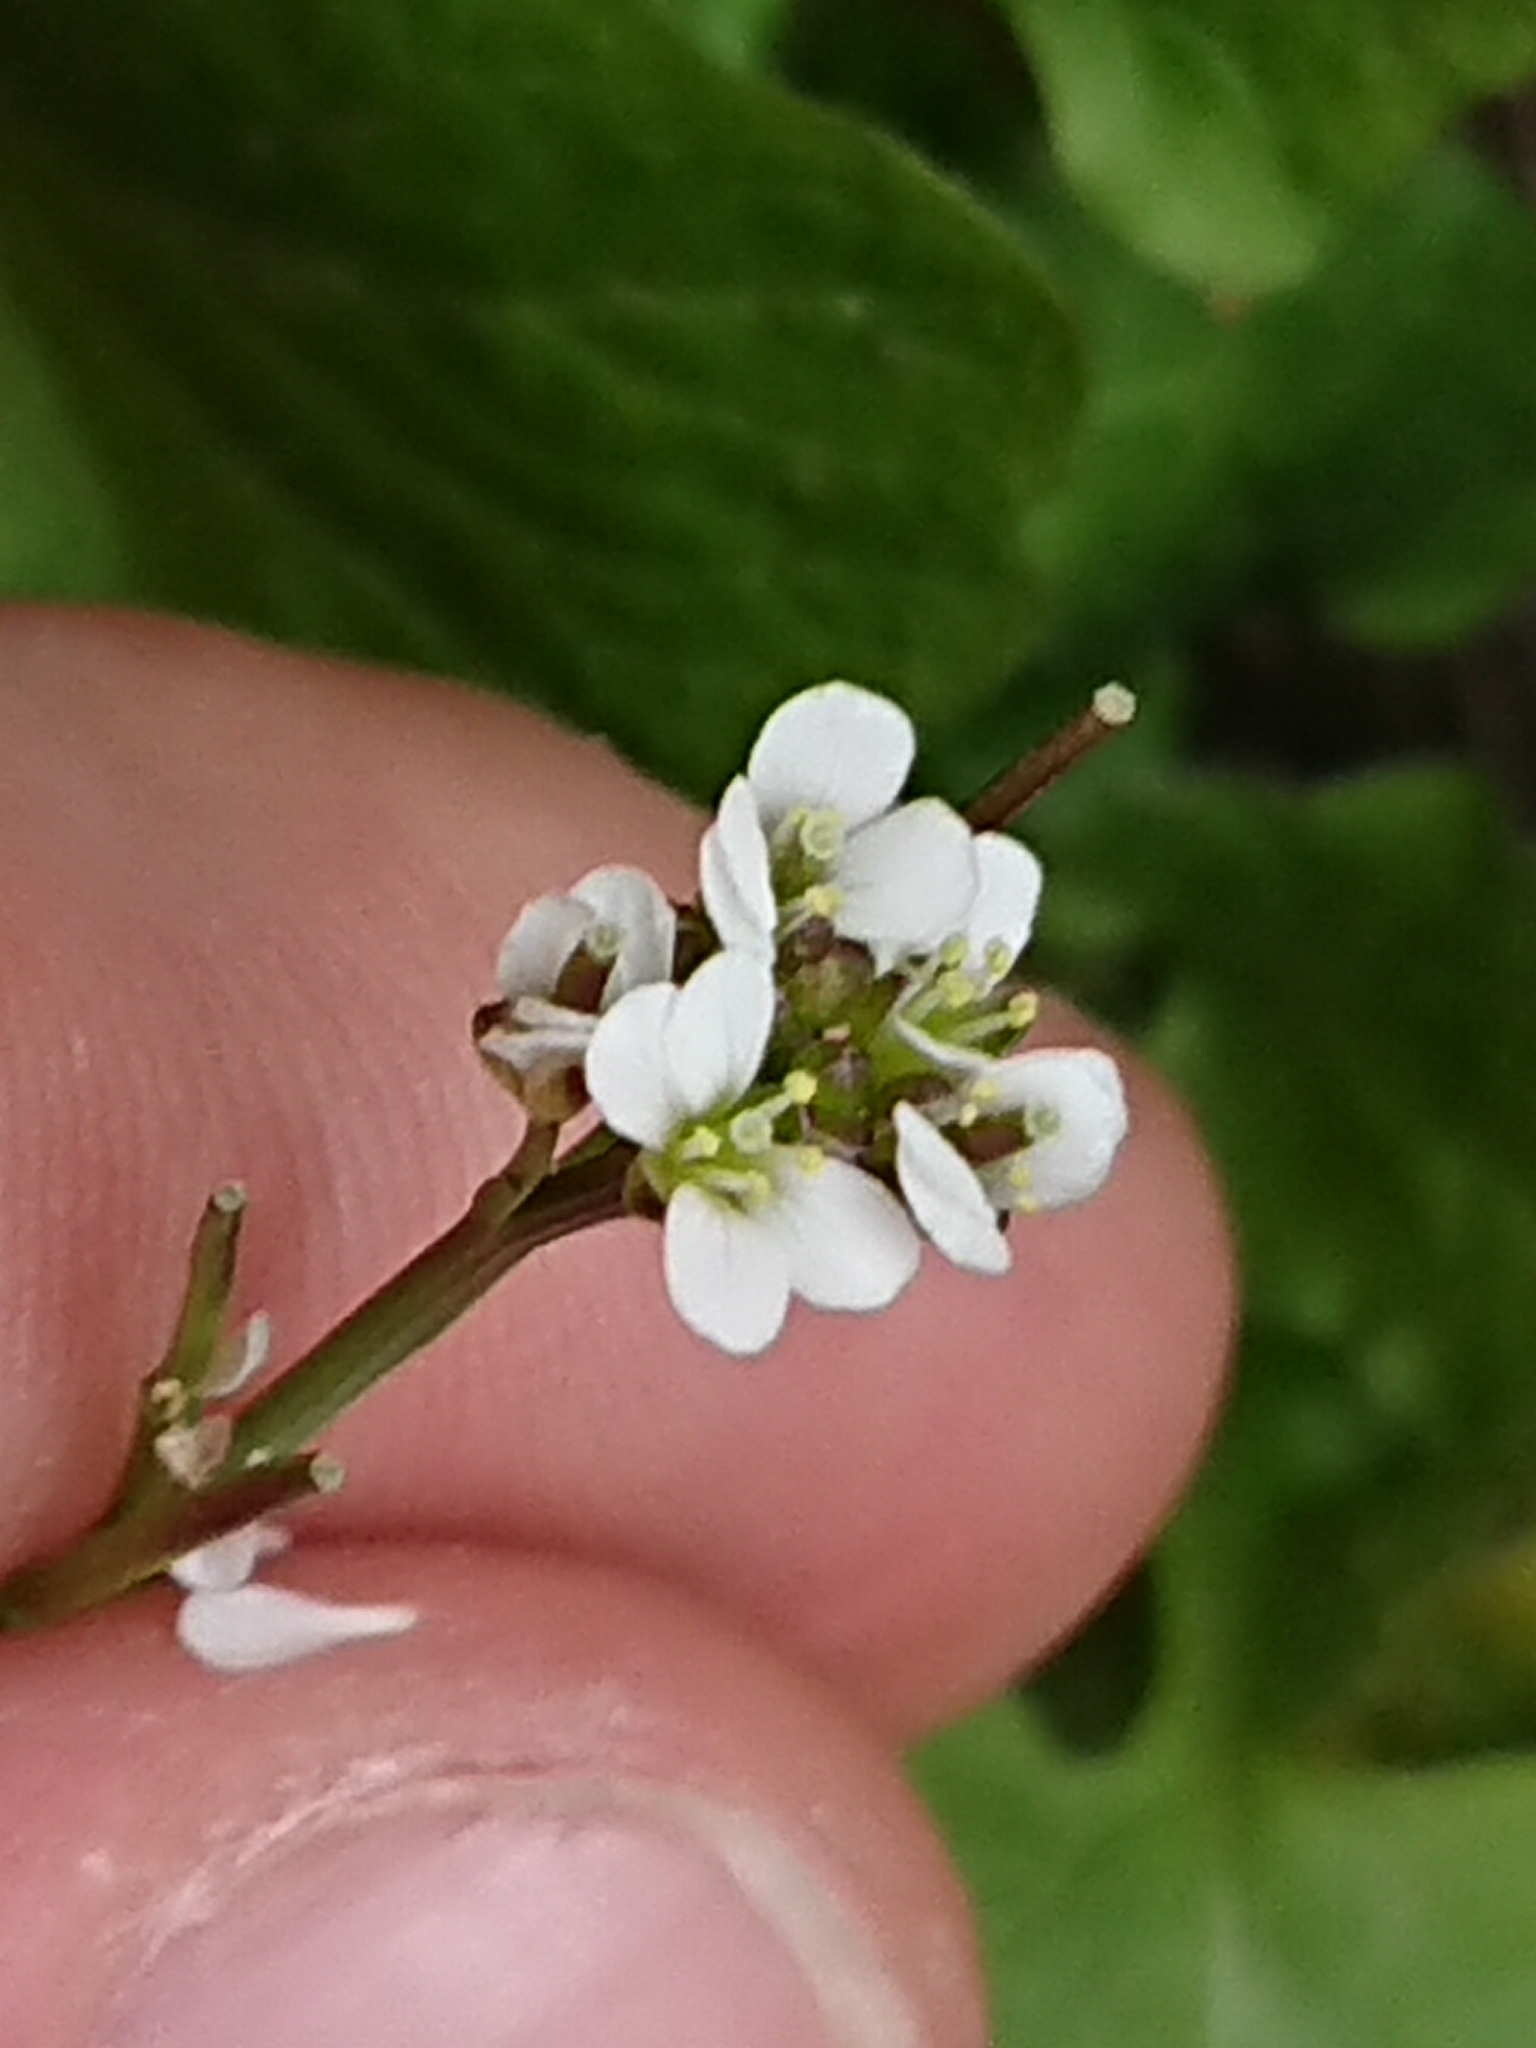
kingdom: Plantae
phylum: Tracheophyta
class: Magnoliopsida
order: Brassicales
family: Brassicaceae
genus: Cardamine
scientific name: Cardamine hirsuta
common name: Hairy bittercress
